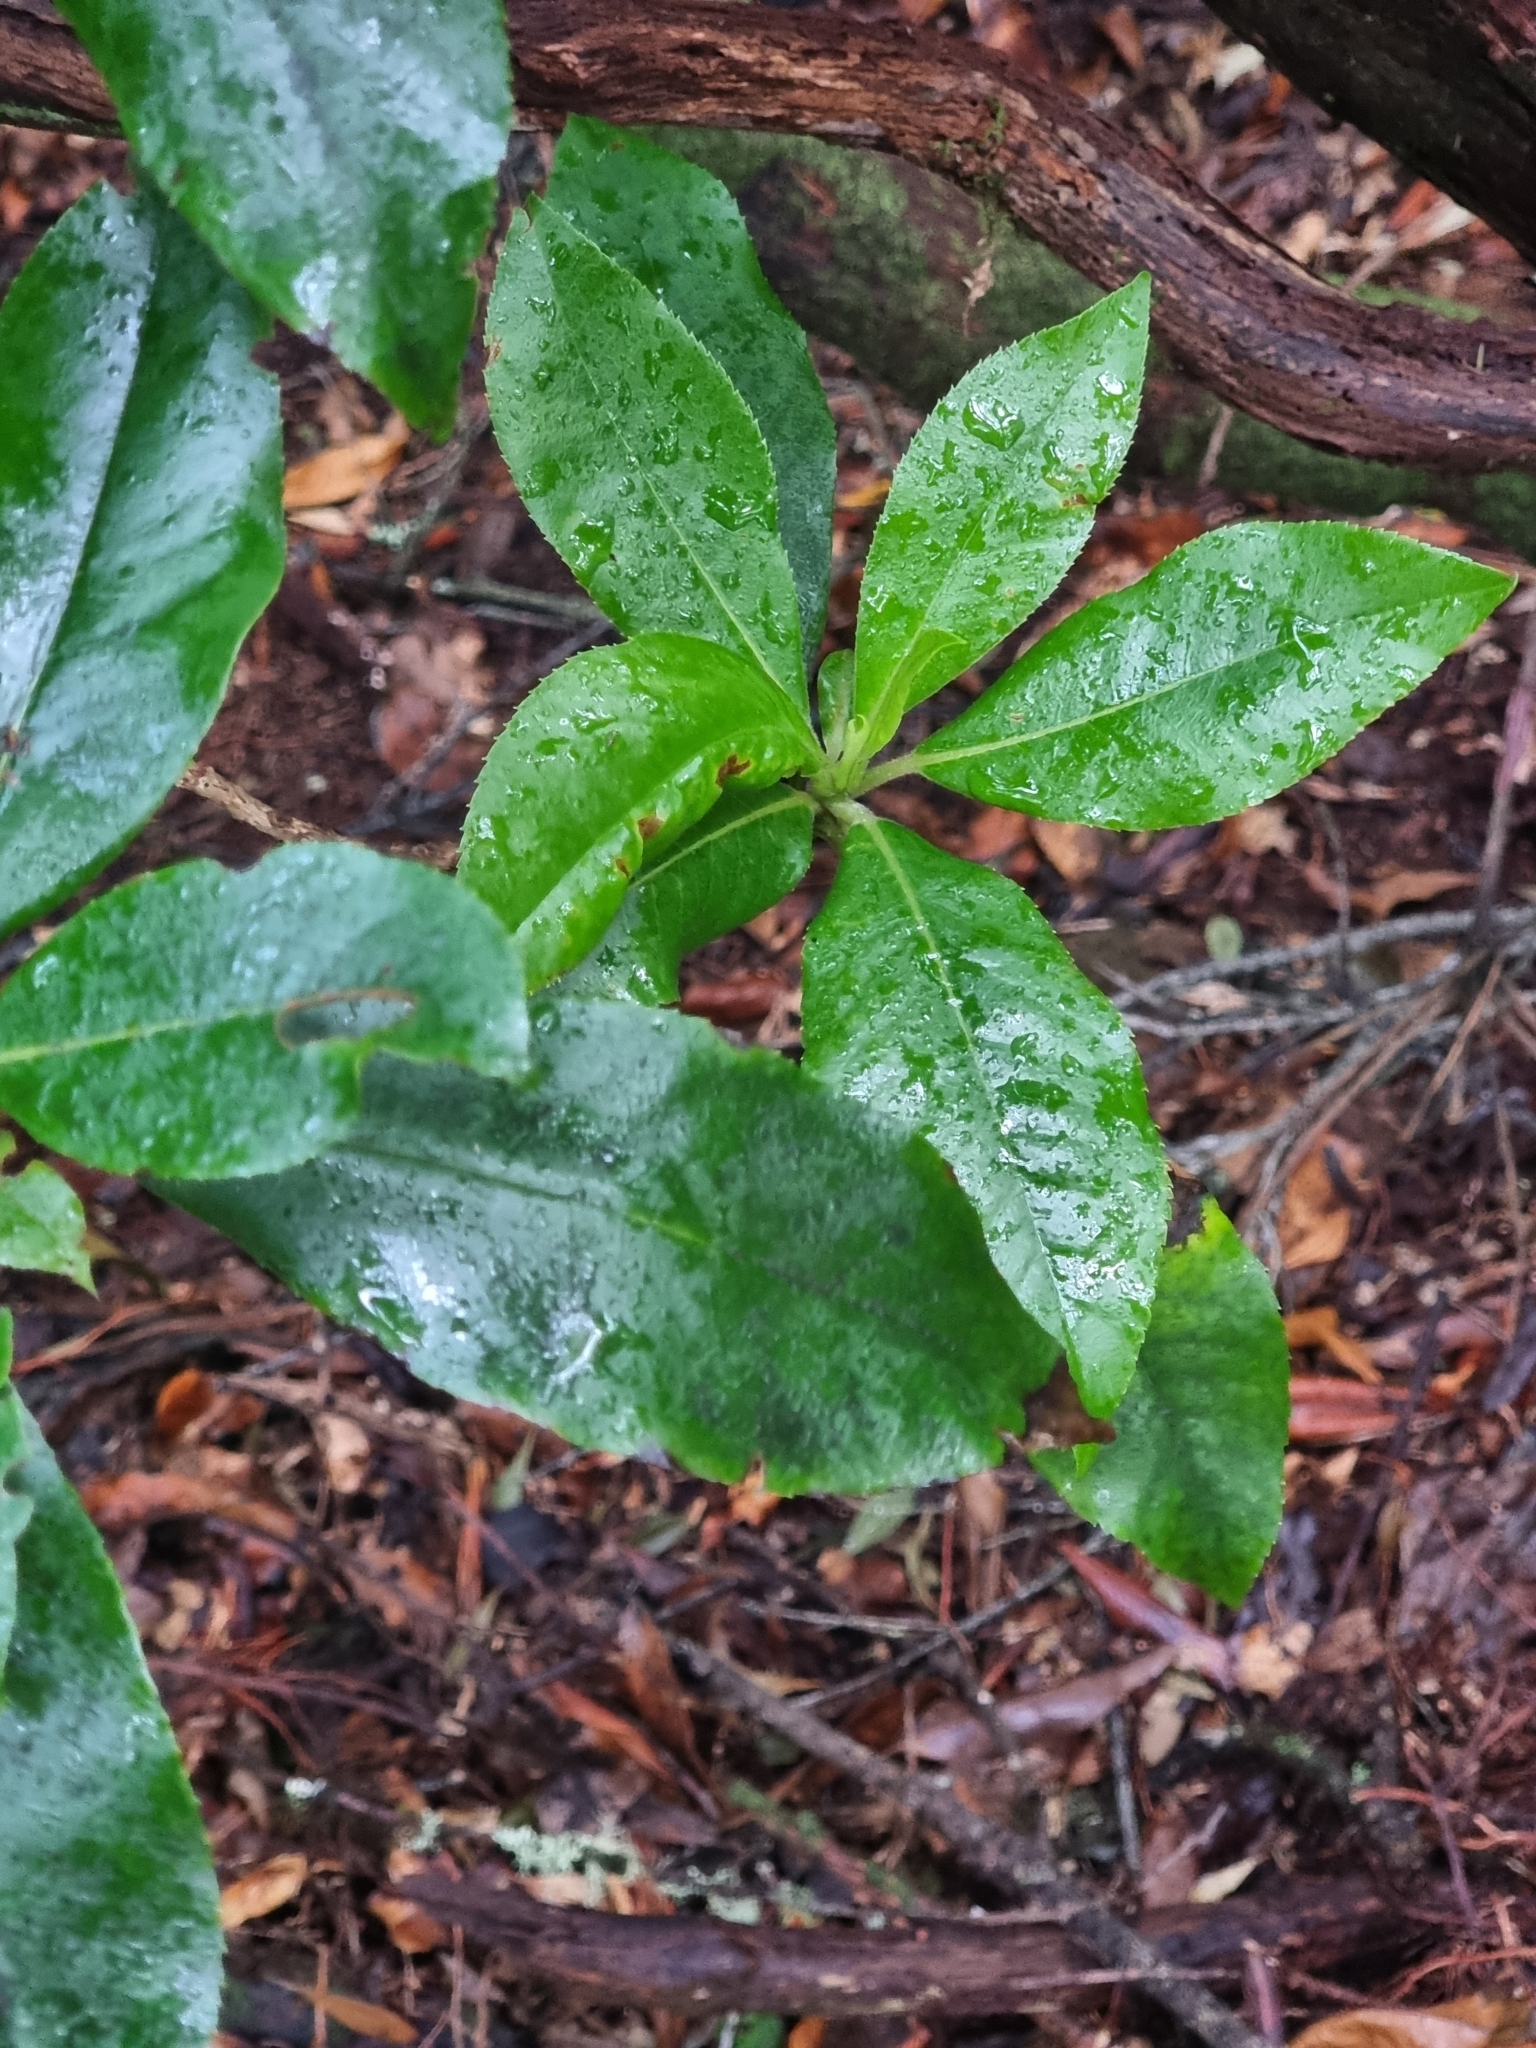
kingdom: Plantae
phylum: Tracheophyta
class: Magnoliopsida
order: Ericales
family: Clethraceae
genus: Clethra
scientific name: Clethra arborea
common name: Lily-of-the-valley-tree
